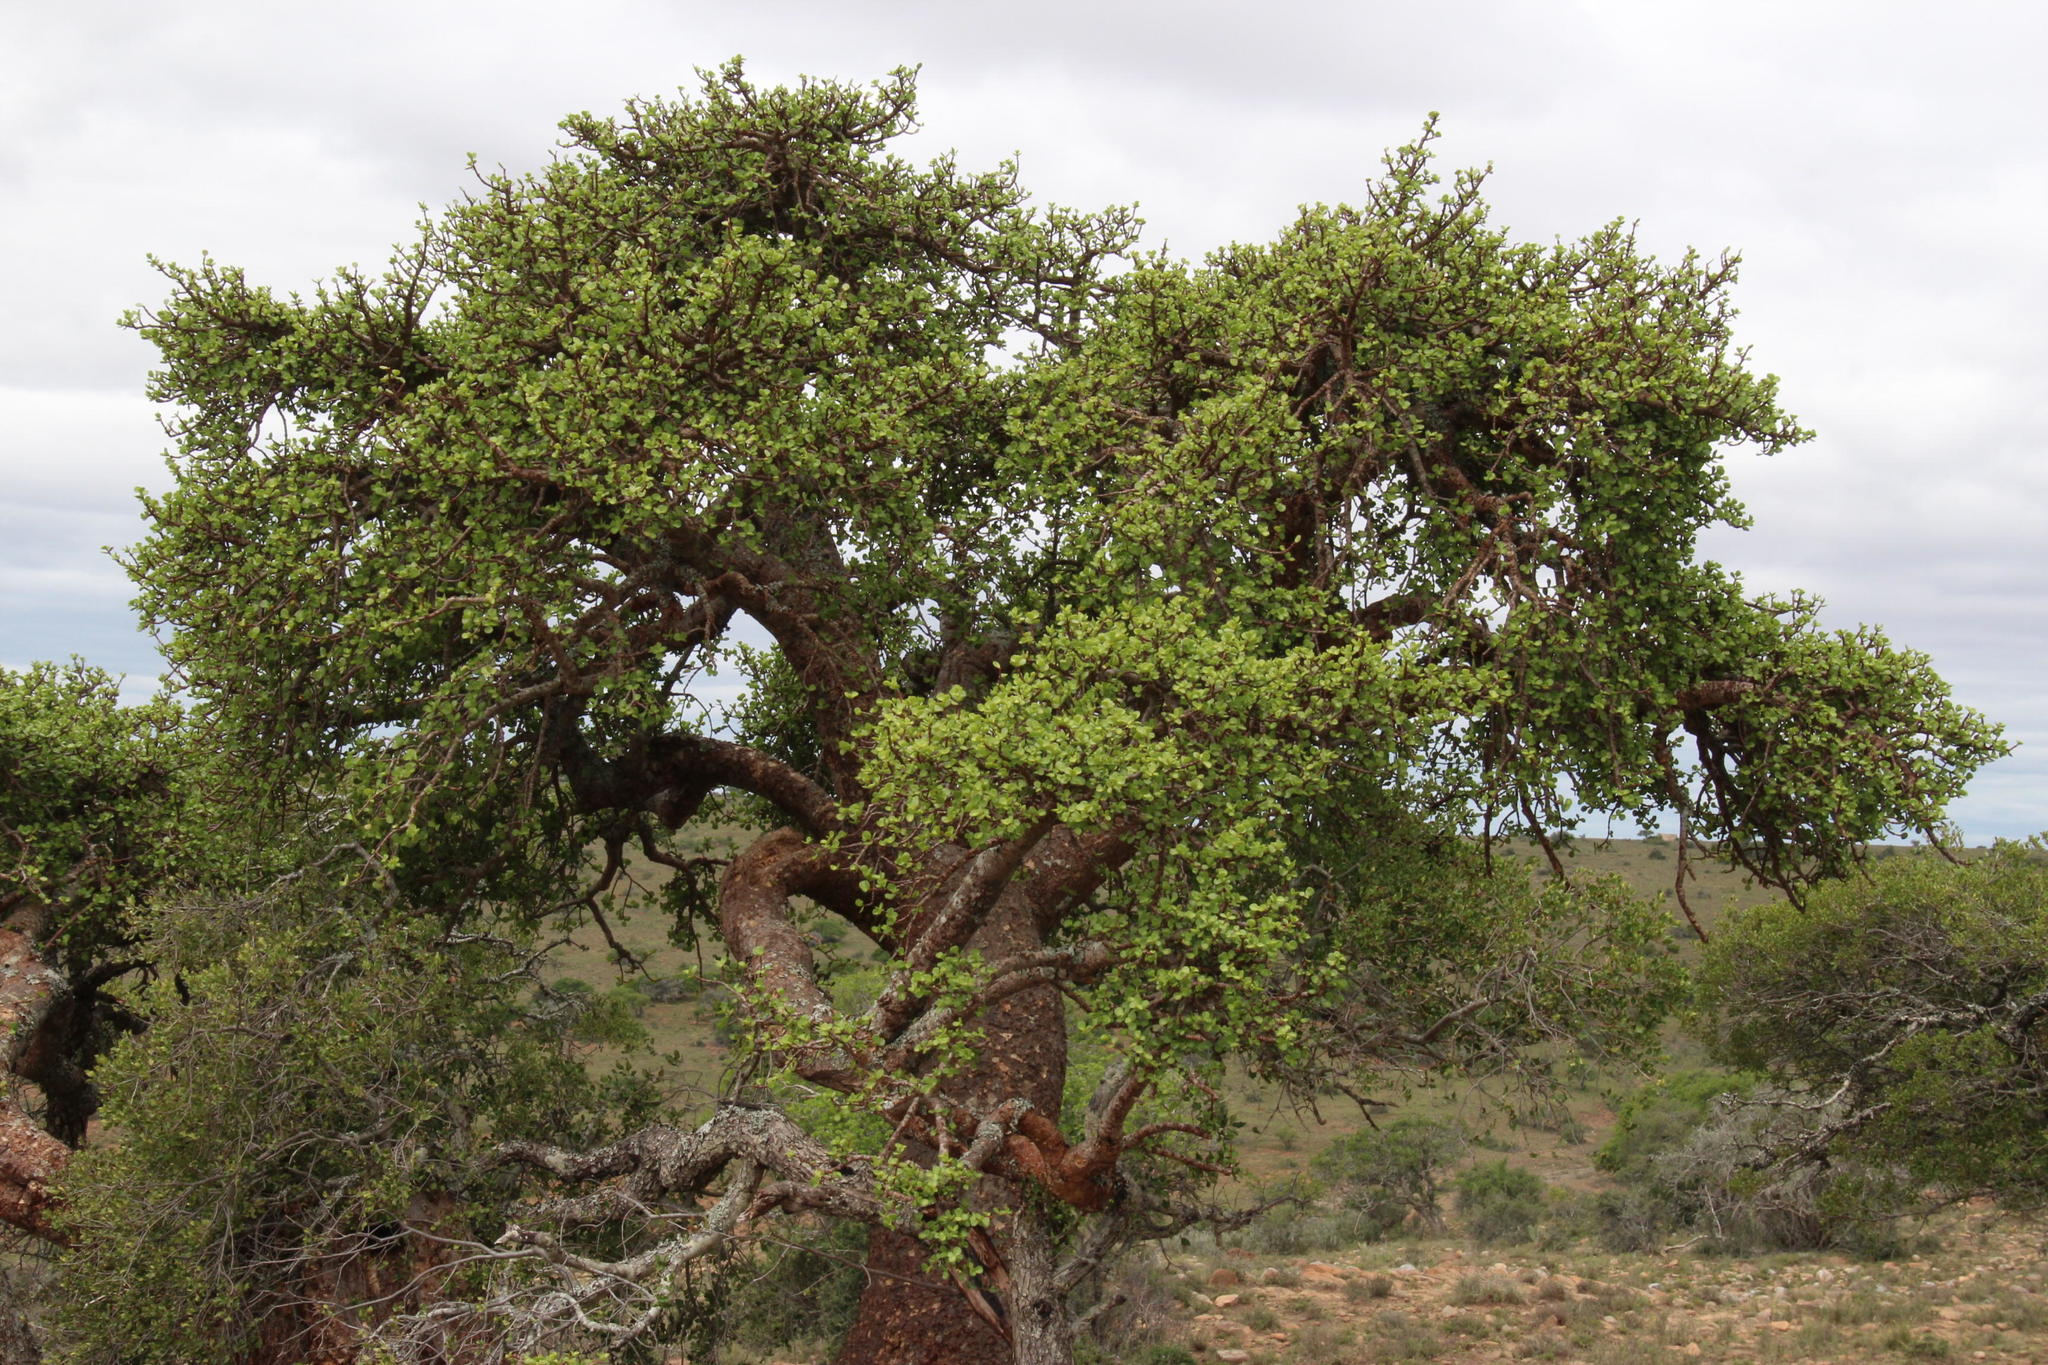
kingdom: Plantae
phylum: Tracheophyta
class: Magnoliopsida
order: Caryophyllales
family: Didiereaceae
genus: Portulacaria
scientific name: Portulacaria afra
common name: Elephant-bush
